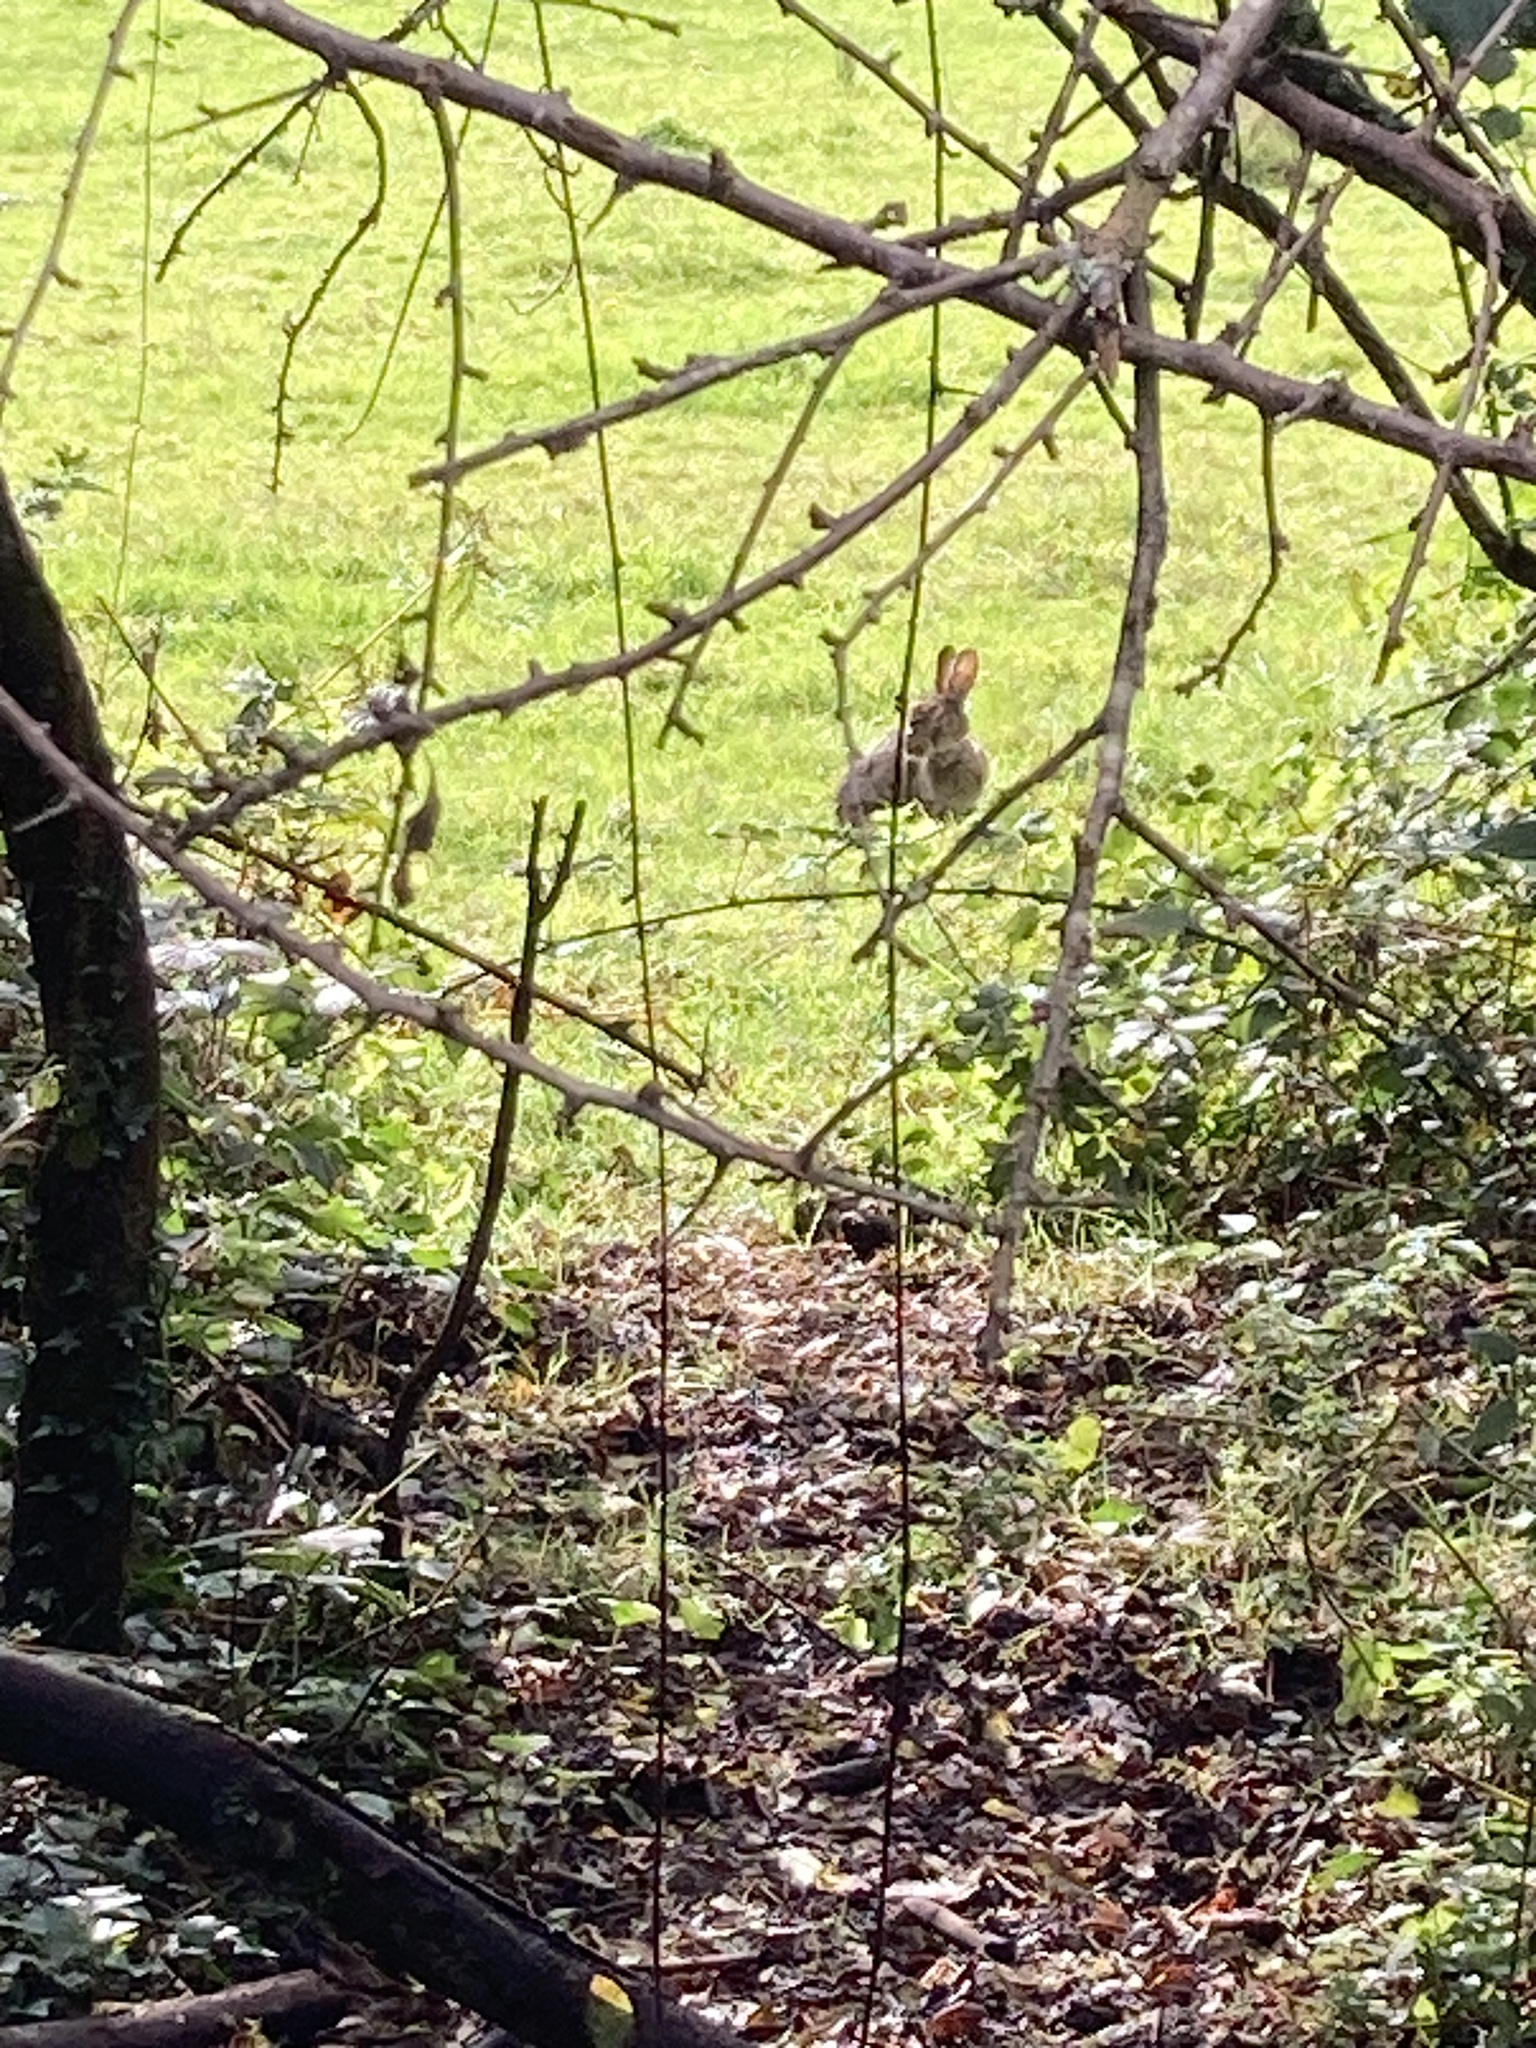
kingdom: Animalia
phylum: Chordata
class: Mammalia
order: Lagomorpha
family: Leporidae
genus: Oryctolagus
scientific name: Oryctolagus cuniculus
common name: European rabbit
